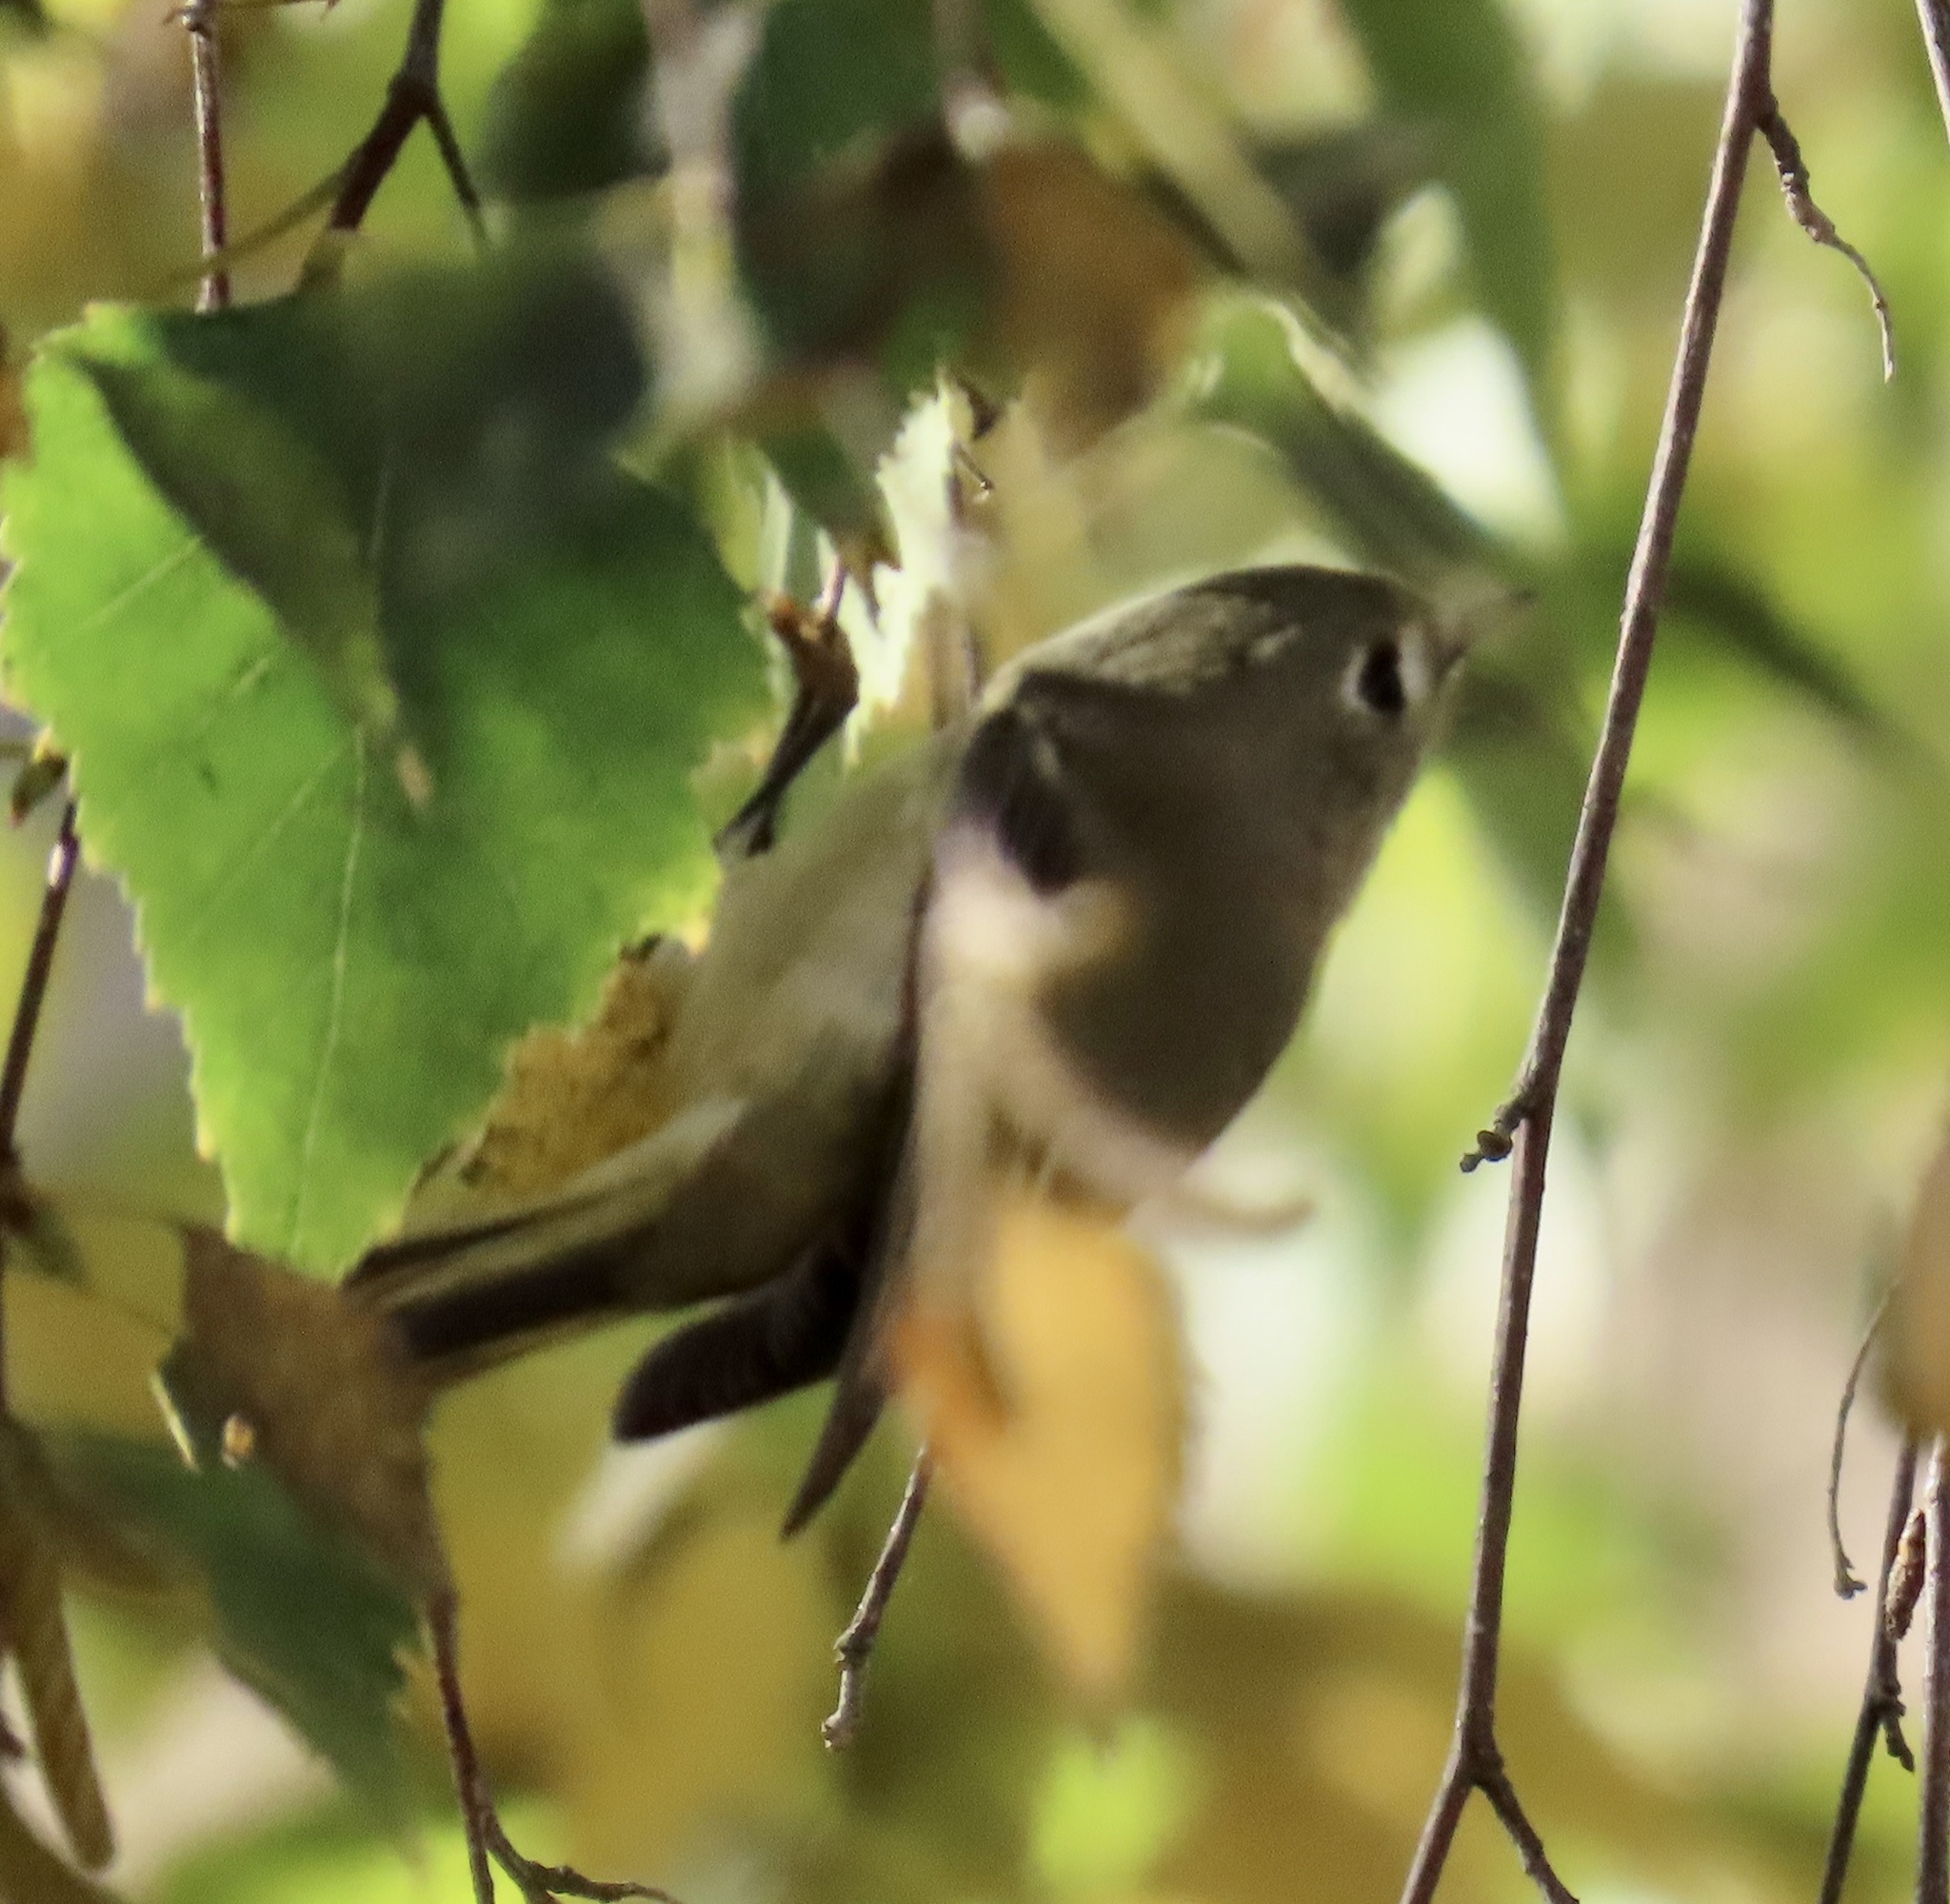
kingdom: Animalia
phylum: Chordata
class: Aves
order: Passeriformes
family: Regulidae
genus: Regulus
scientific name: Regulus calendula
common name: Ruby-crowned kinglet
